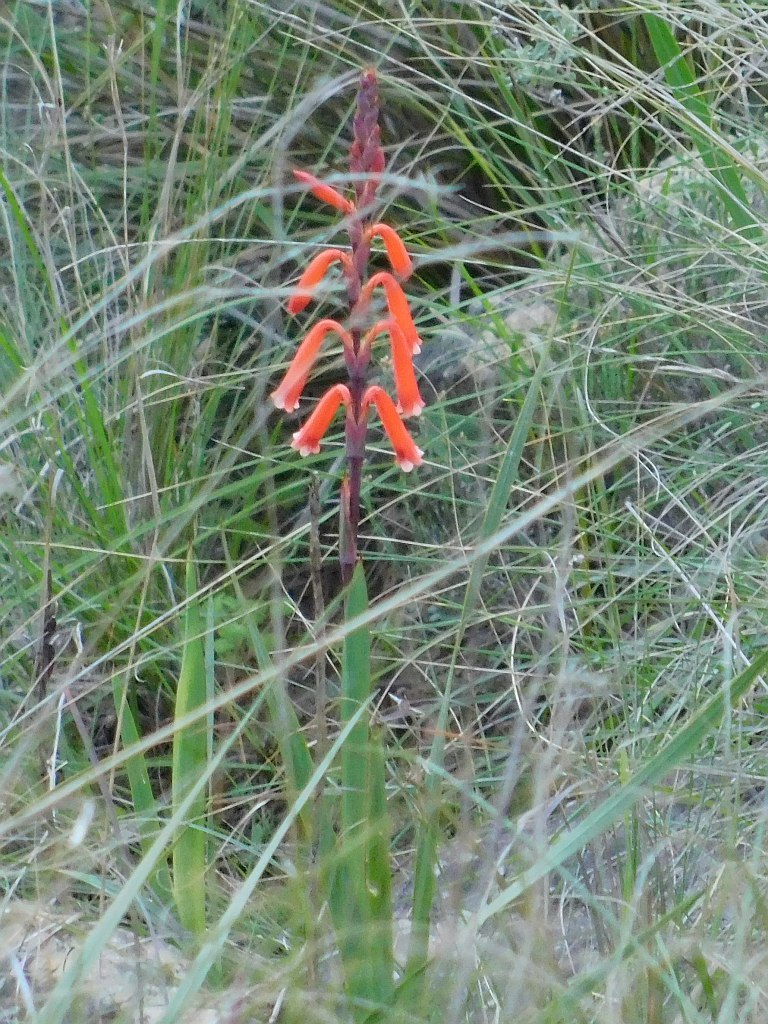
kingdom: Plantae
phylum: Tracheophyta
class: Liliopsida
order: Asparagales
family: Iridaceae
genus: Watsonia
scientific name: Watsonia aletroides
